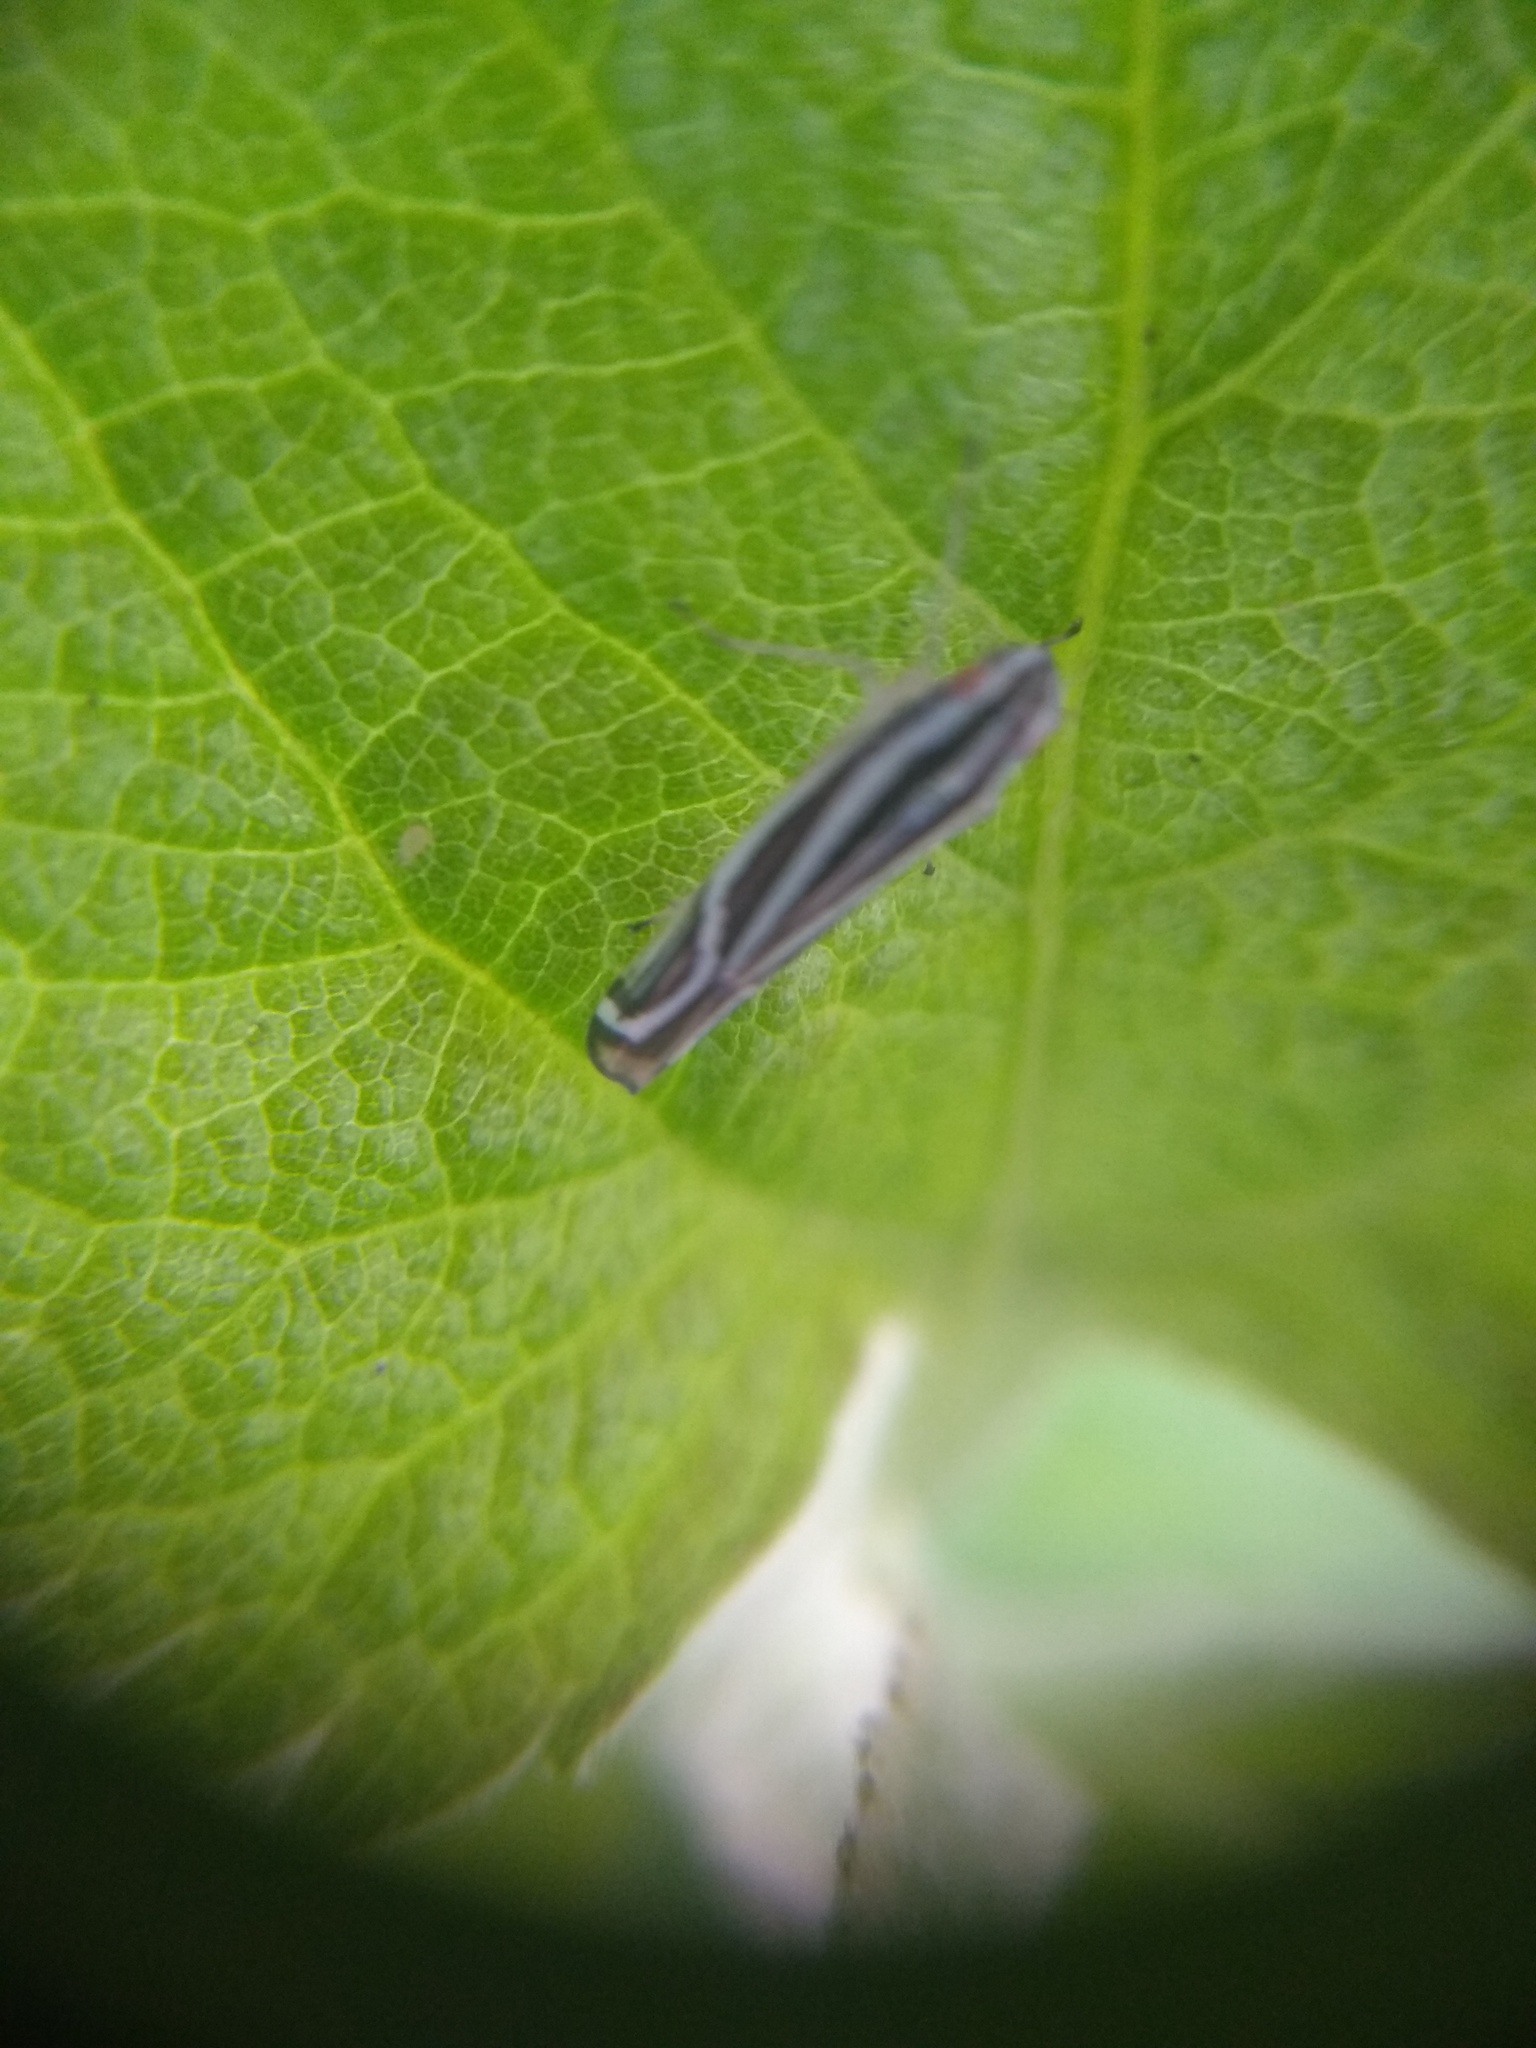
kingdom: Animalia
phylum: Arthropoda
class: Insecta
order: Hemiptera
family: Cicadellidae
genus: Sibovia
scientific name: Sibovia sagata
